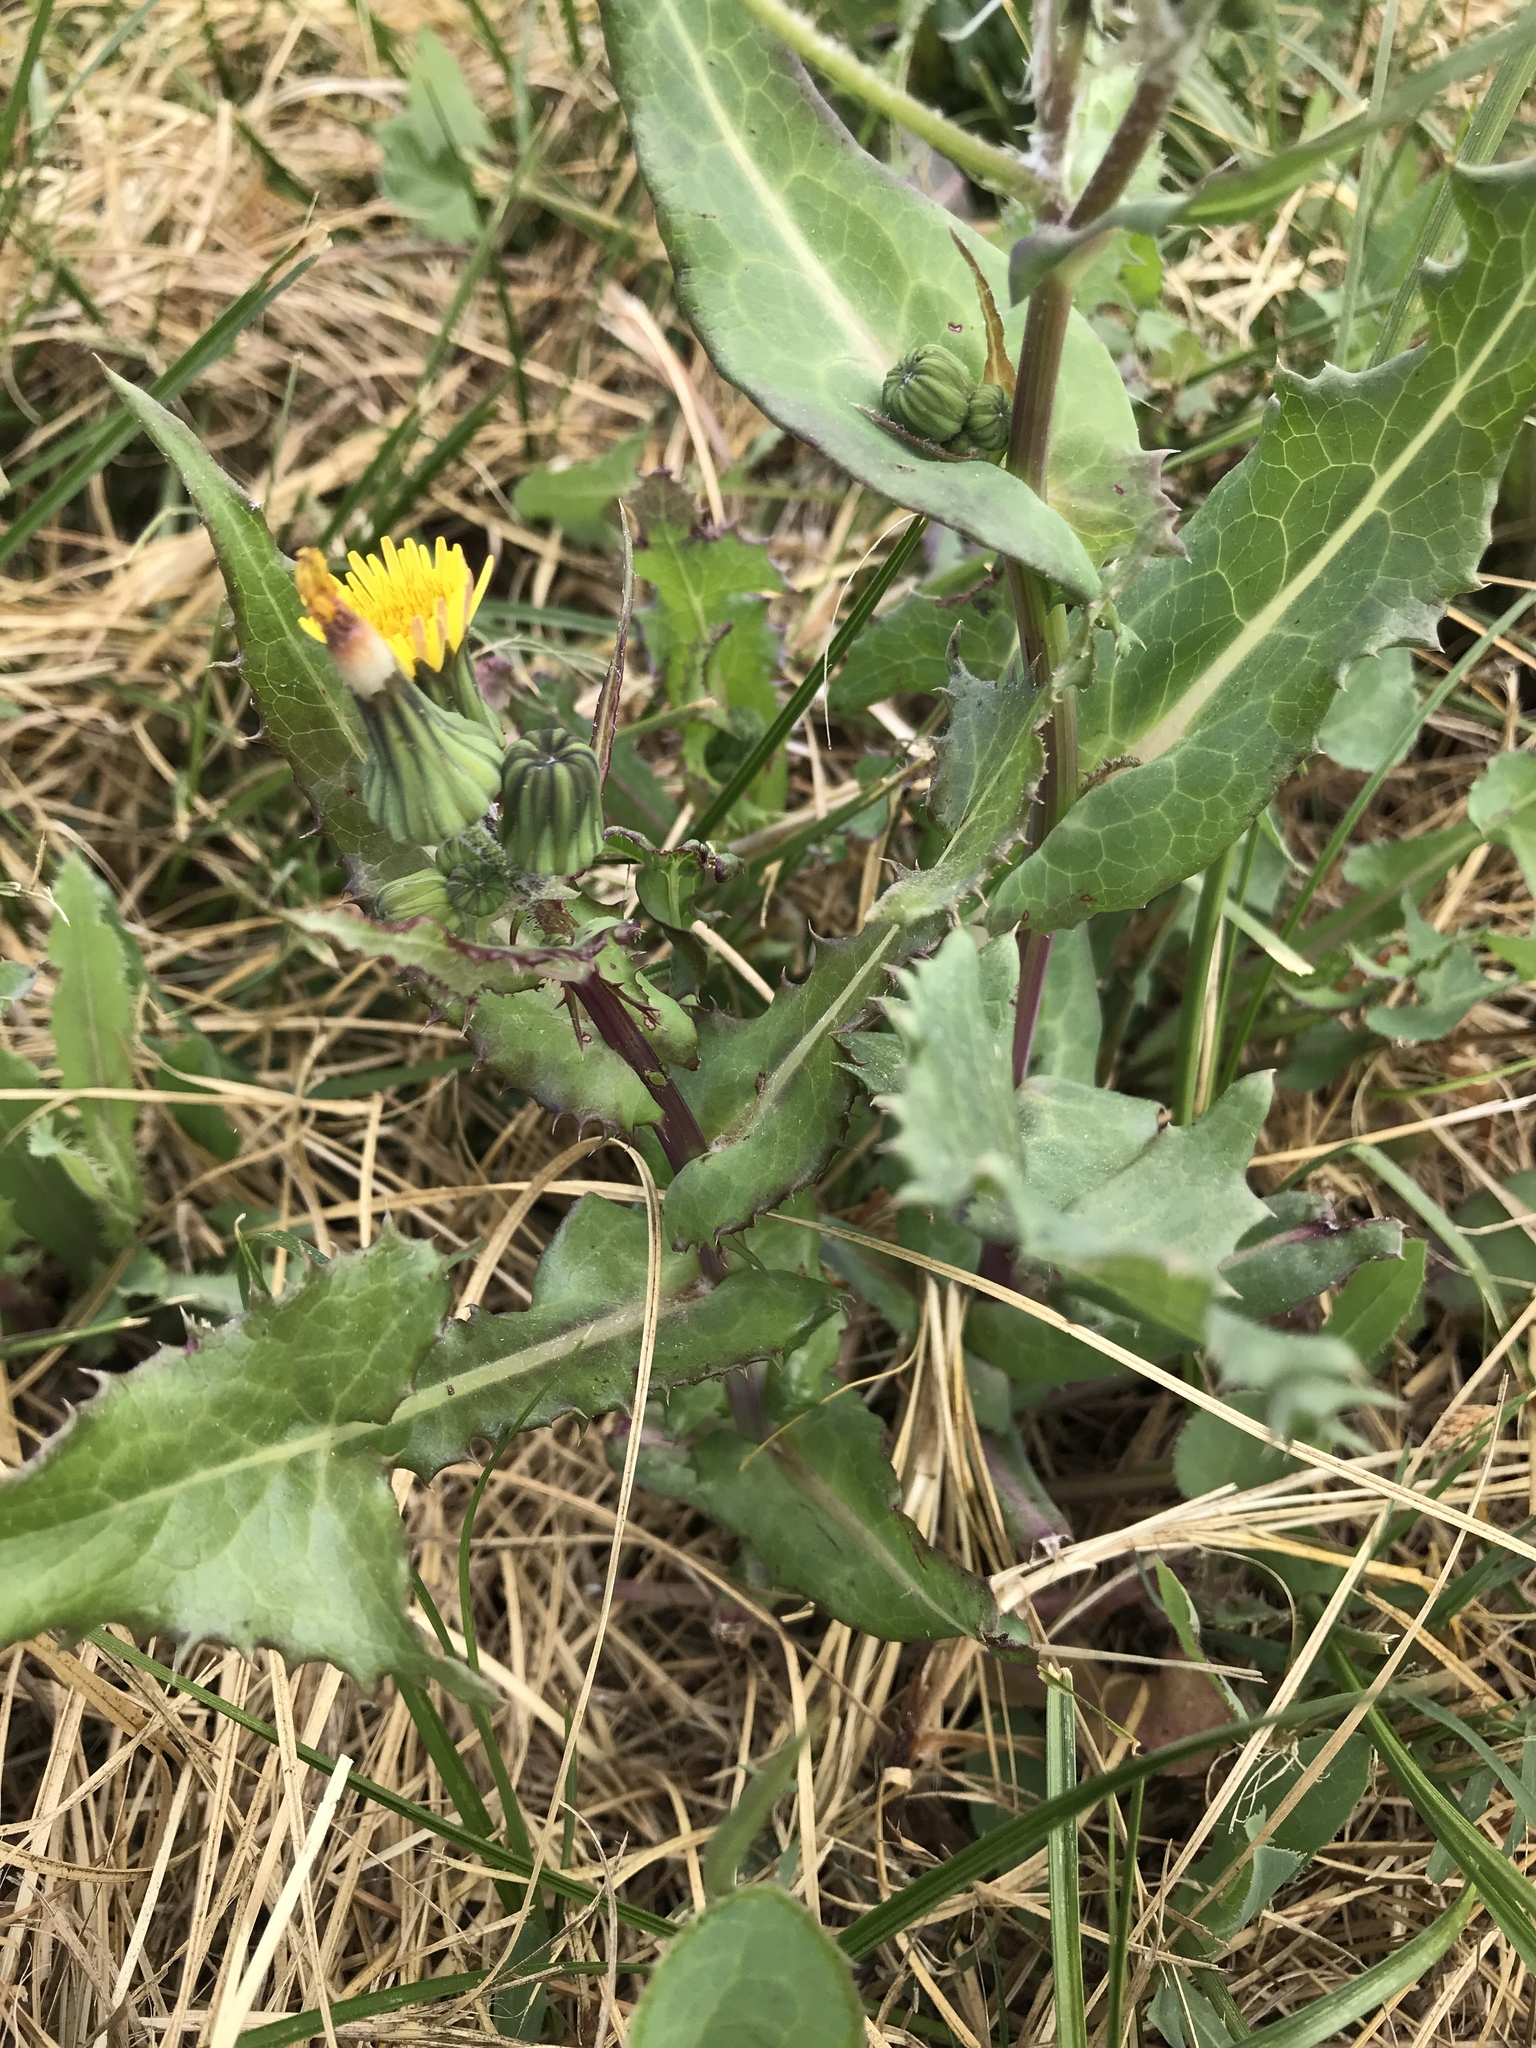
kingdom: Plantae
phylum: Tracheophyta
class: Magnoliopsida
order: Asterales
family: Asteraceae
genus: Sonchus
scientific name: Sonchus oleraceus
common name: Common sowthistle
